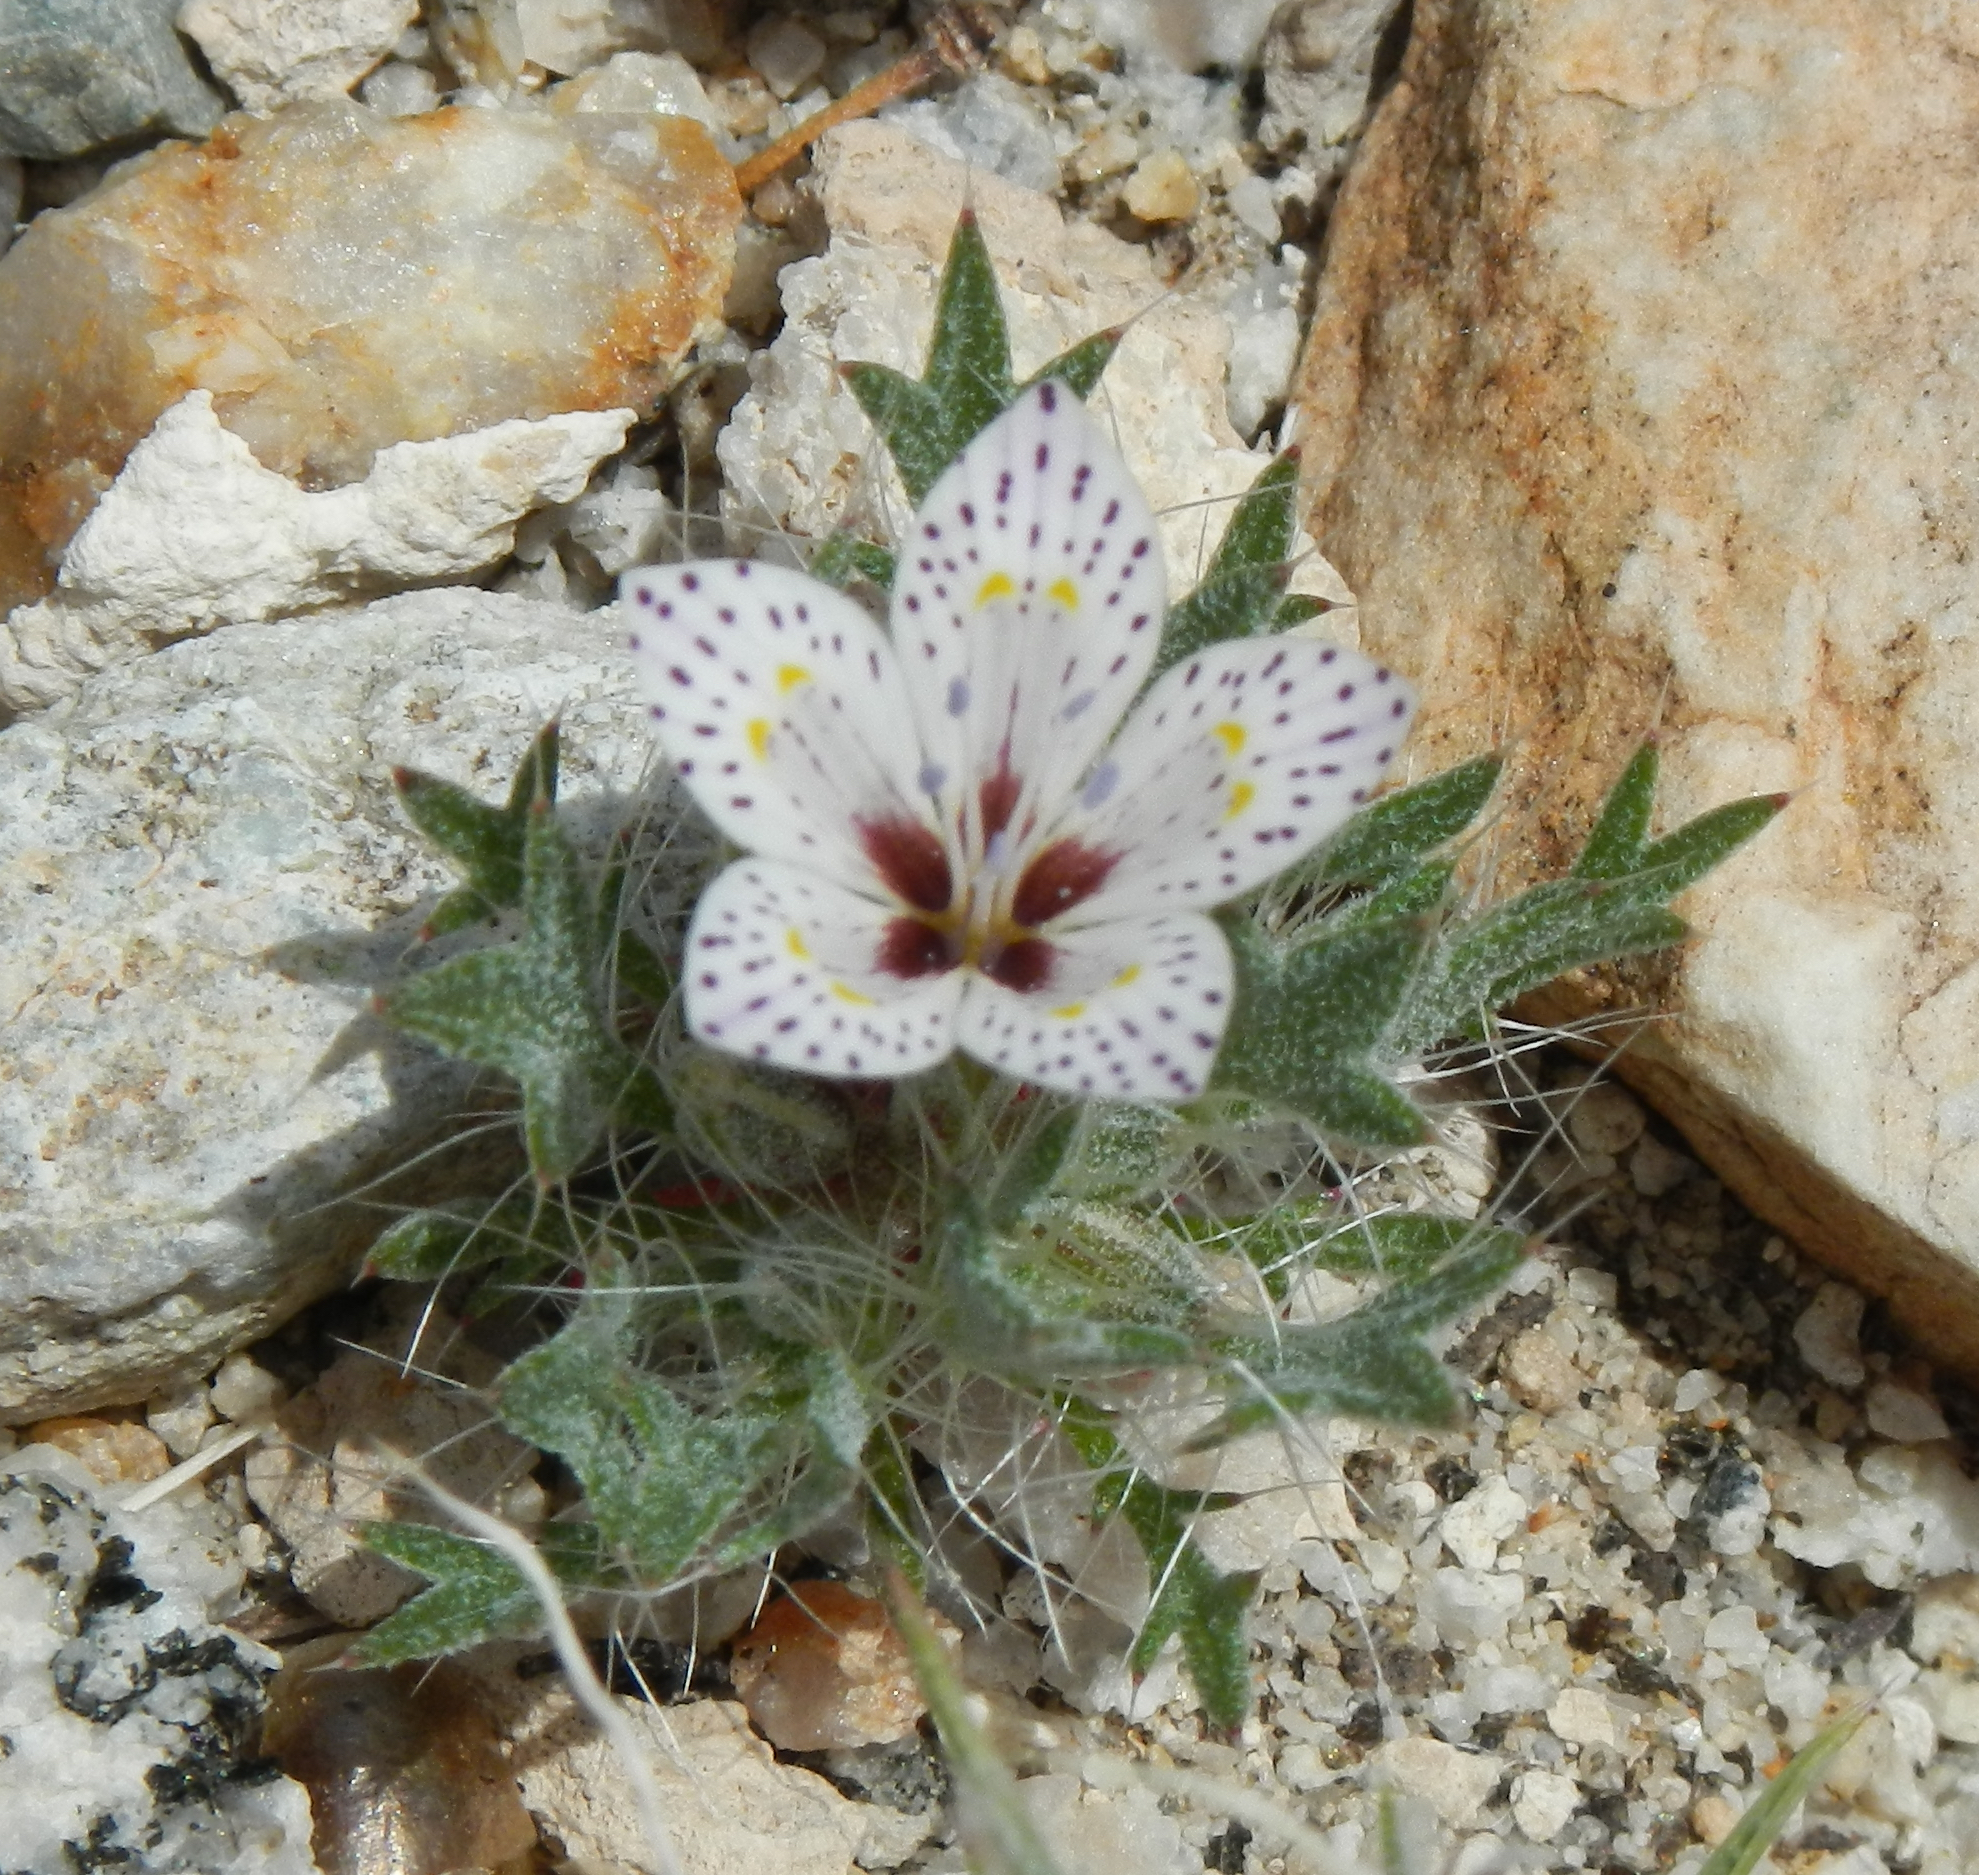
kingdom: Plantae
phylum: Tracheophyta
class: Magnoliopsida
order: Ericales
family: Polemoniaceae
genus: Langloisia
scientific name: Langloisia setosissima
